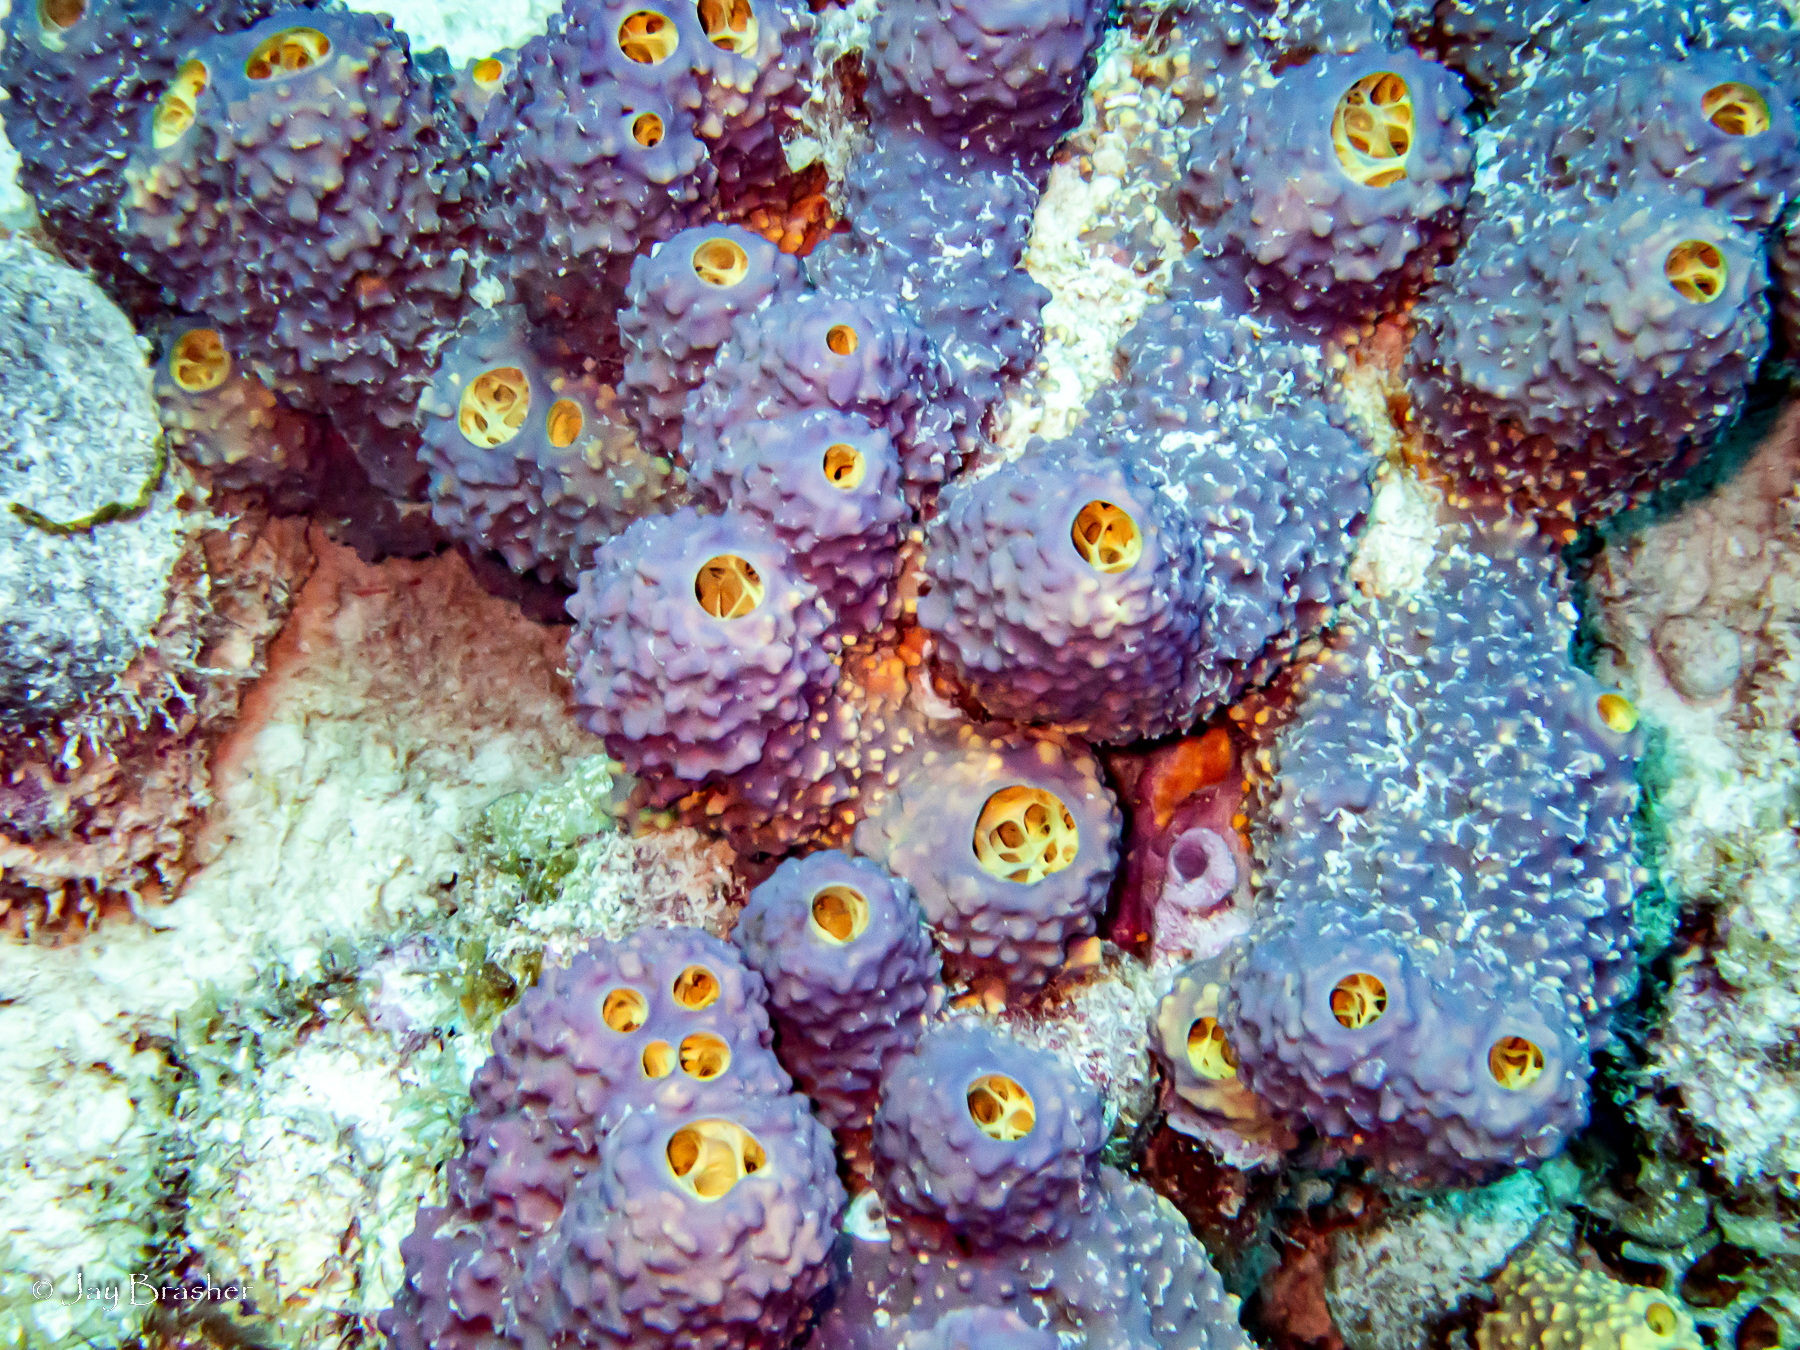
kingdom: Animalia
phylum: Porifera
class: Demospongiae
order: Verongiida
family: Aplysinidae
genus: Aiolochroia
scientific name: Aiolochroia crassa
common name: Branching tube sponge
